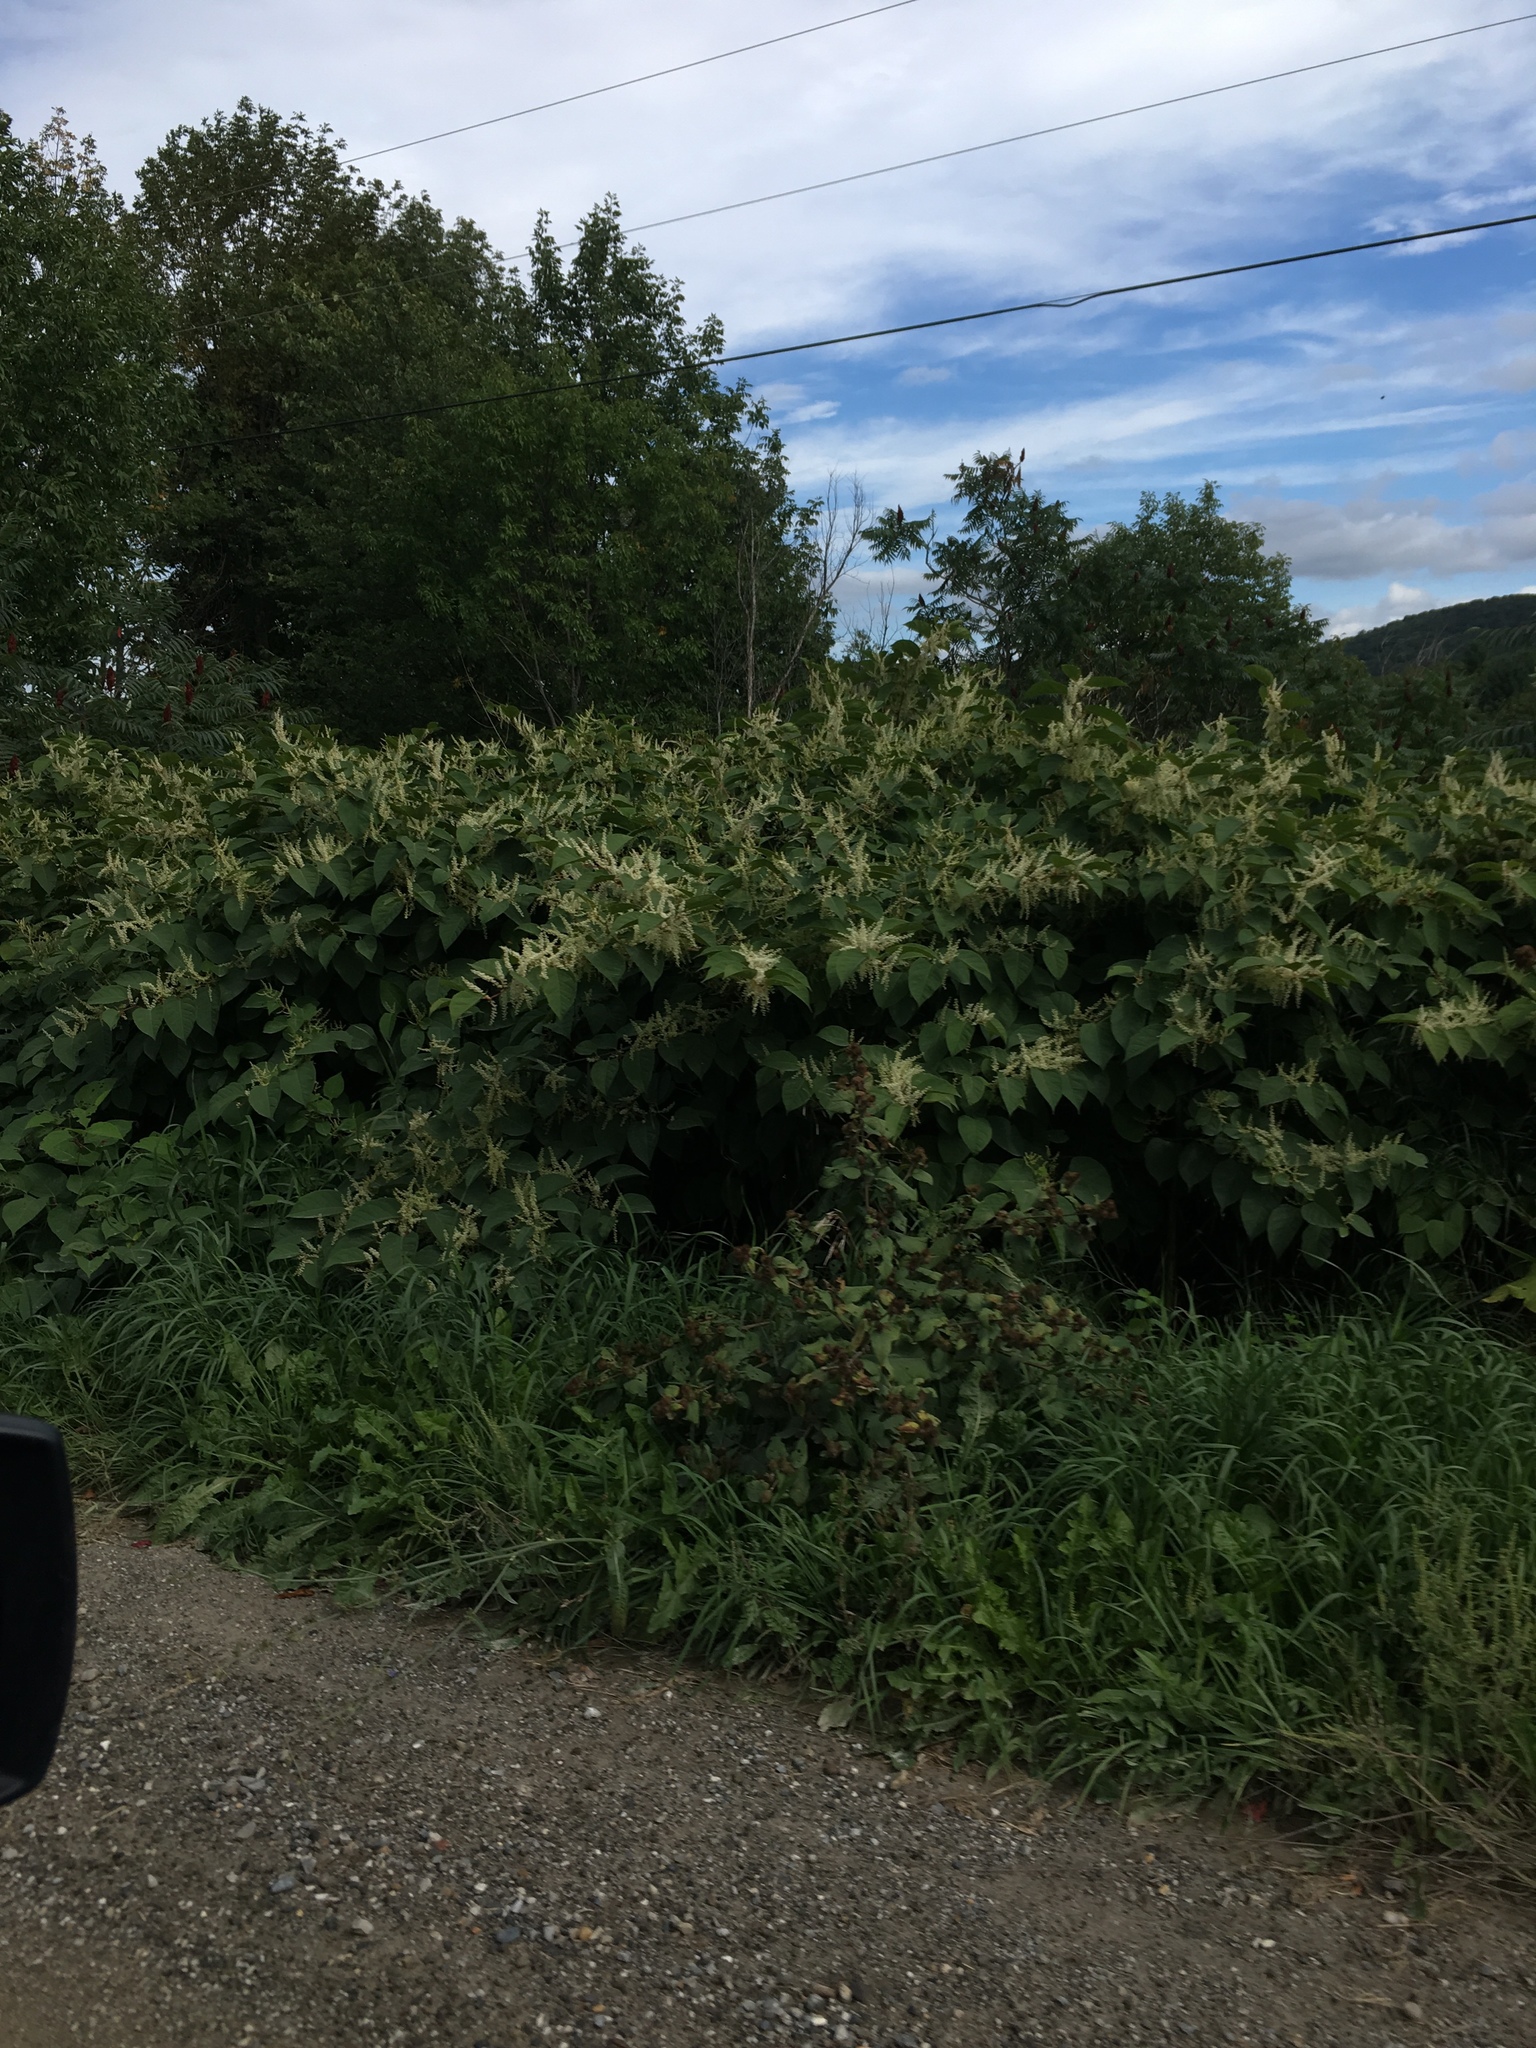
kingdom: Plantae
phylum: Tracheophyta
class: Magnoliopsida
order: Caryophyllales
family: Polygonaceae
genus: Reynoutria
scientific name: Reynoutria japonica
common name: Japanese knotweed
